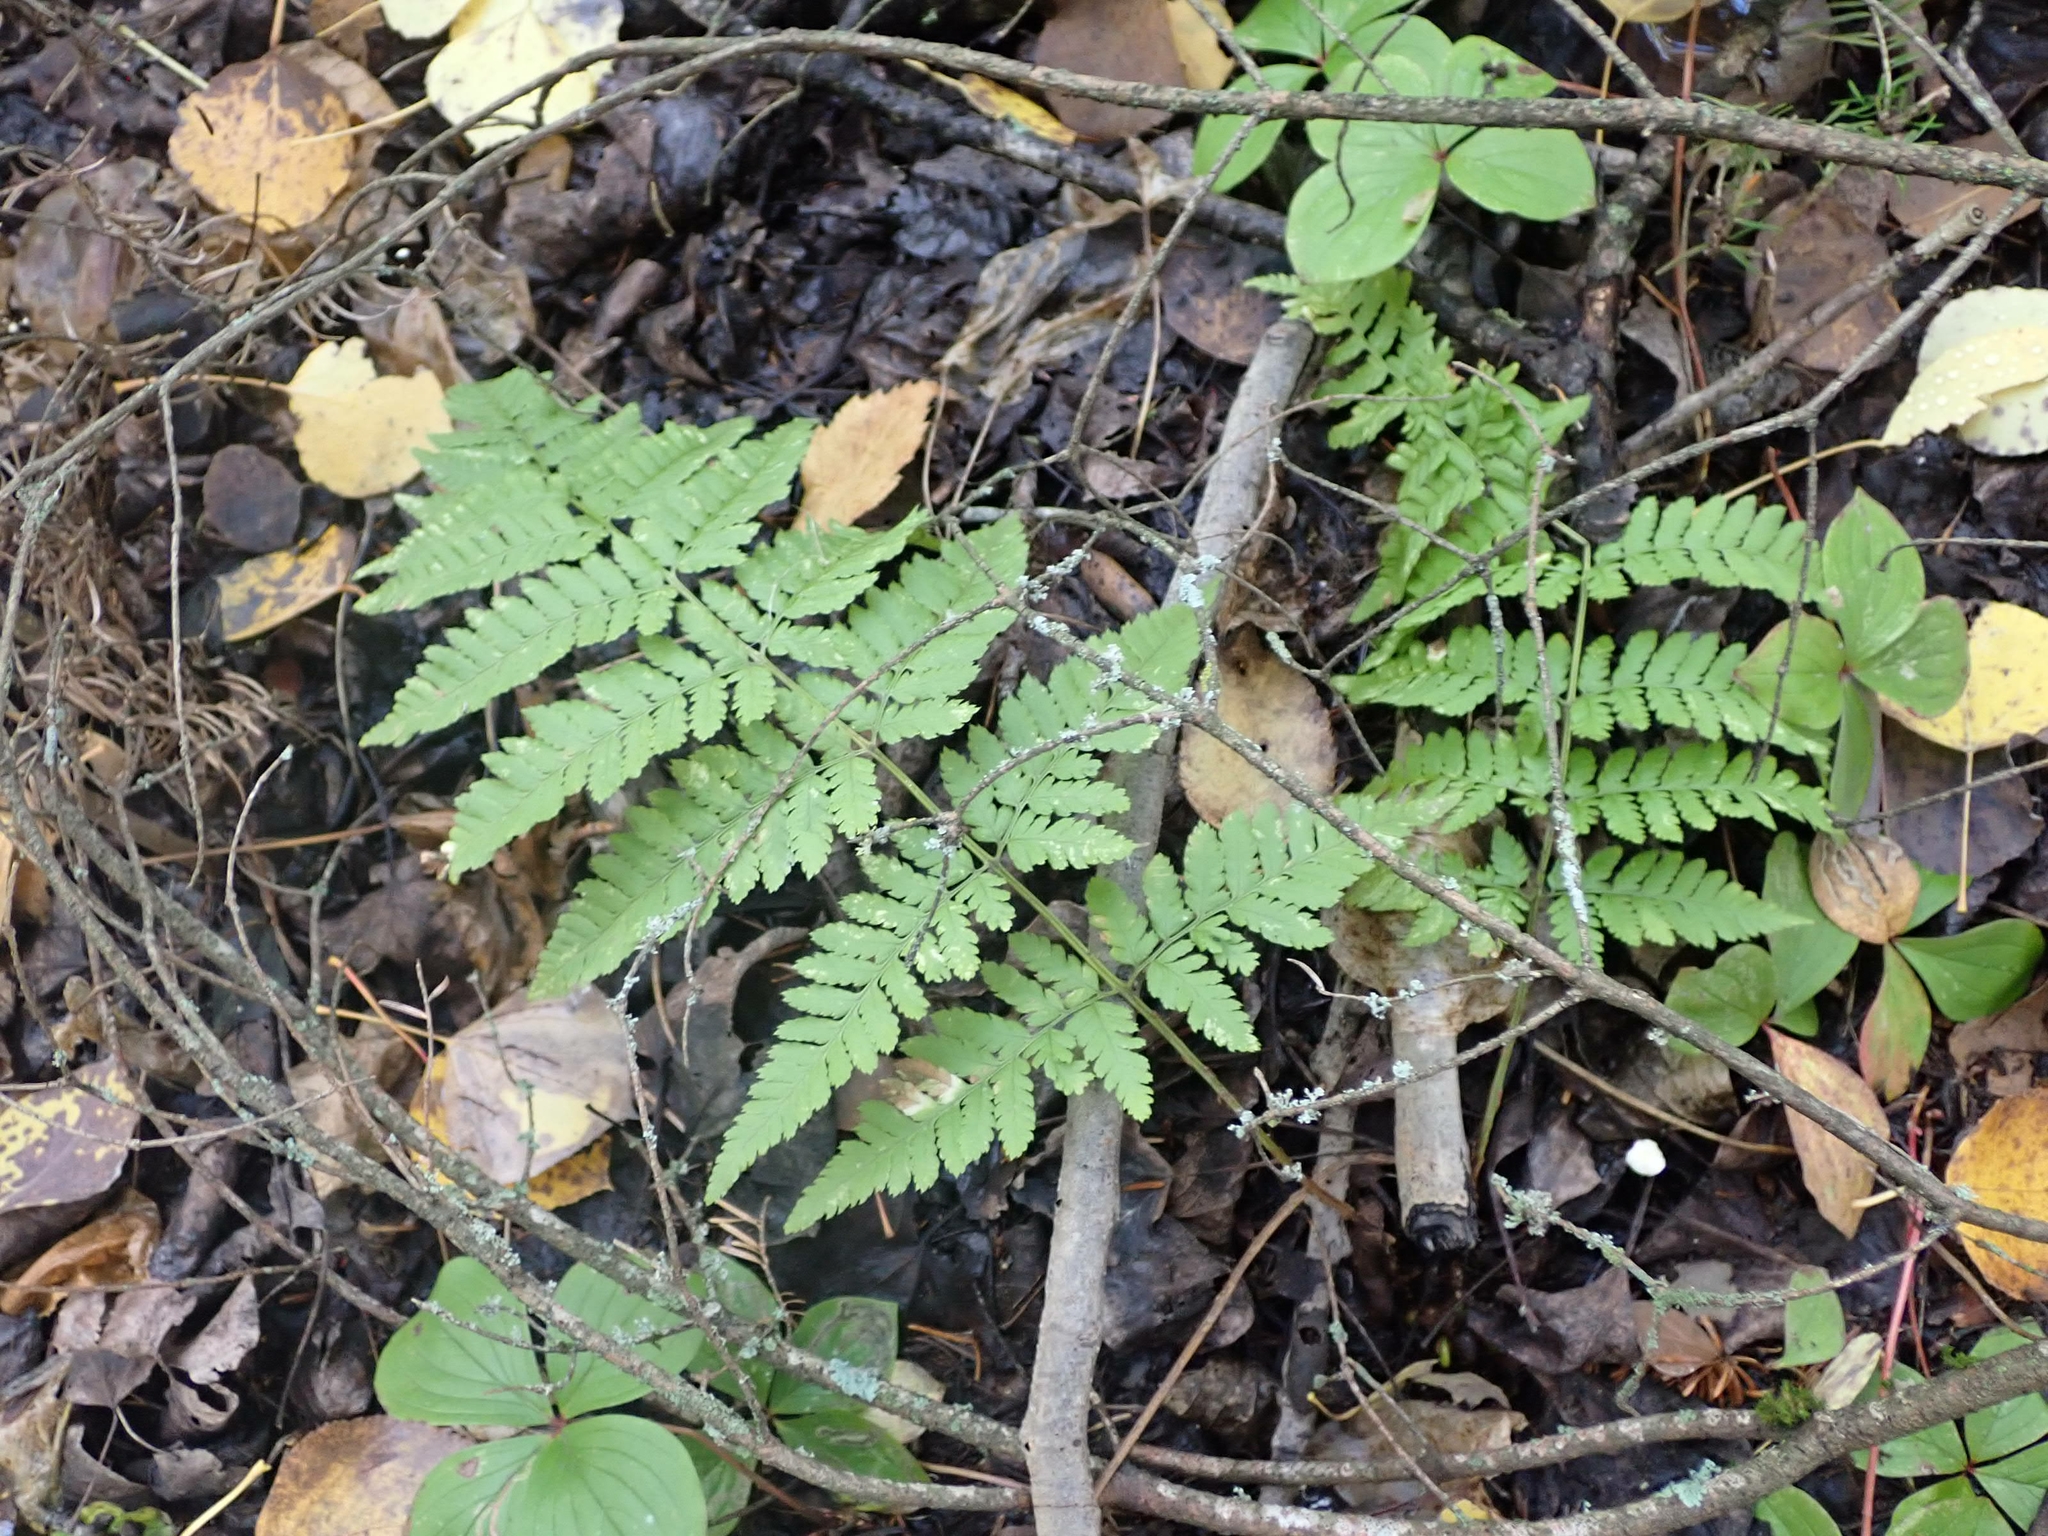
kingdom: Plantae
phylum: Tracheophyta
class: Polypodiopsida
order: Polypodiales
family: Dryopteridaceae
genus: Dryopteris
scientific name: Dryopteris carthusiana
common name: Narrow buckler-fern
